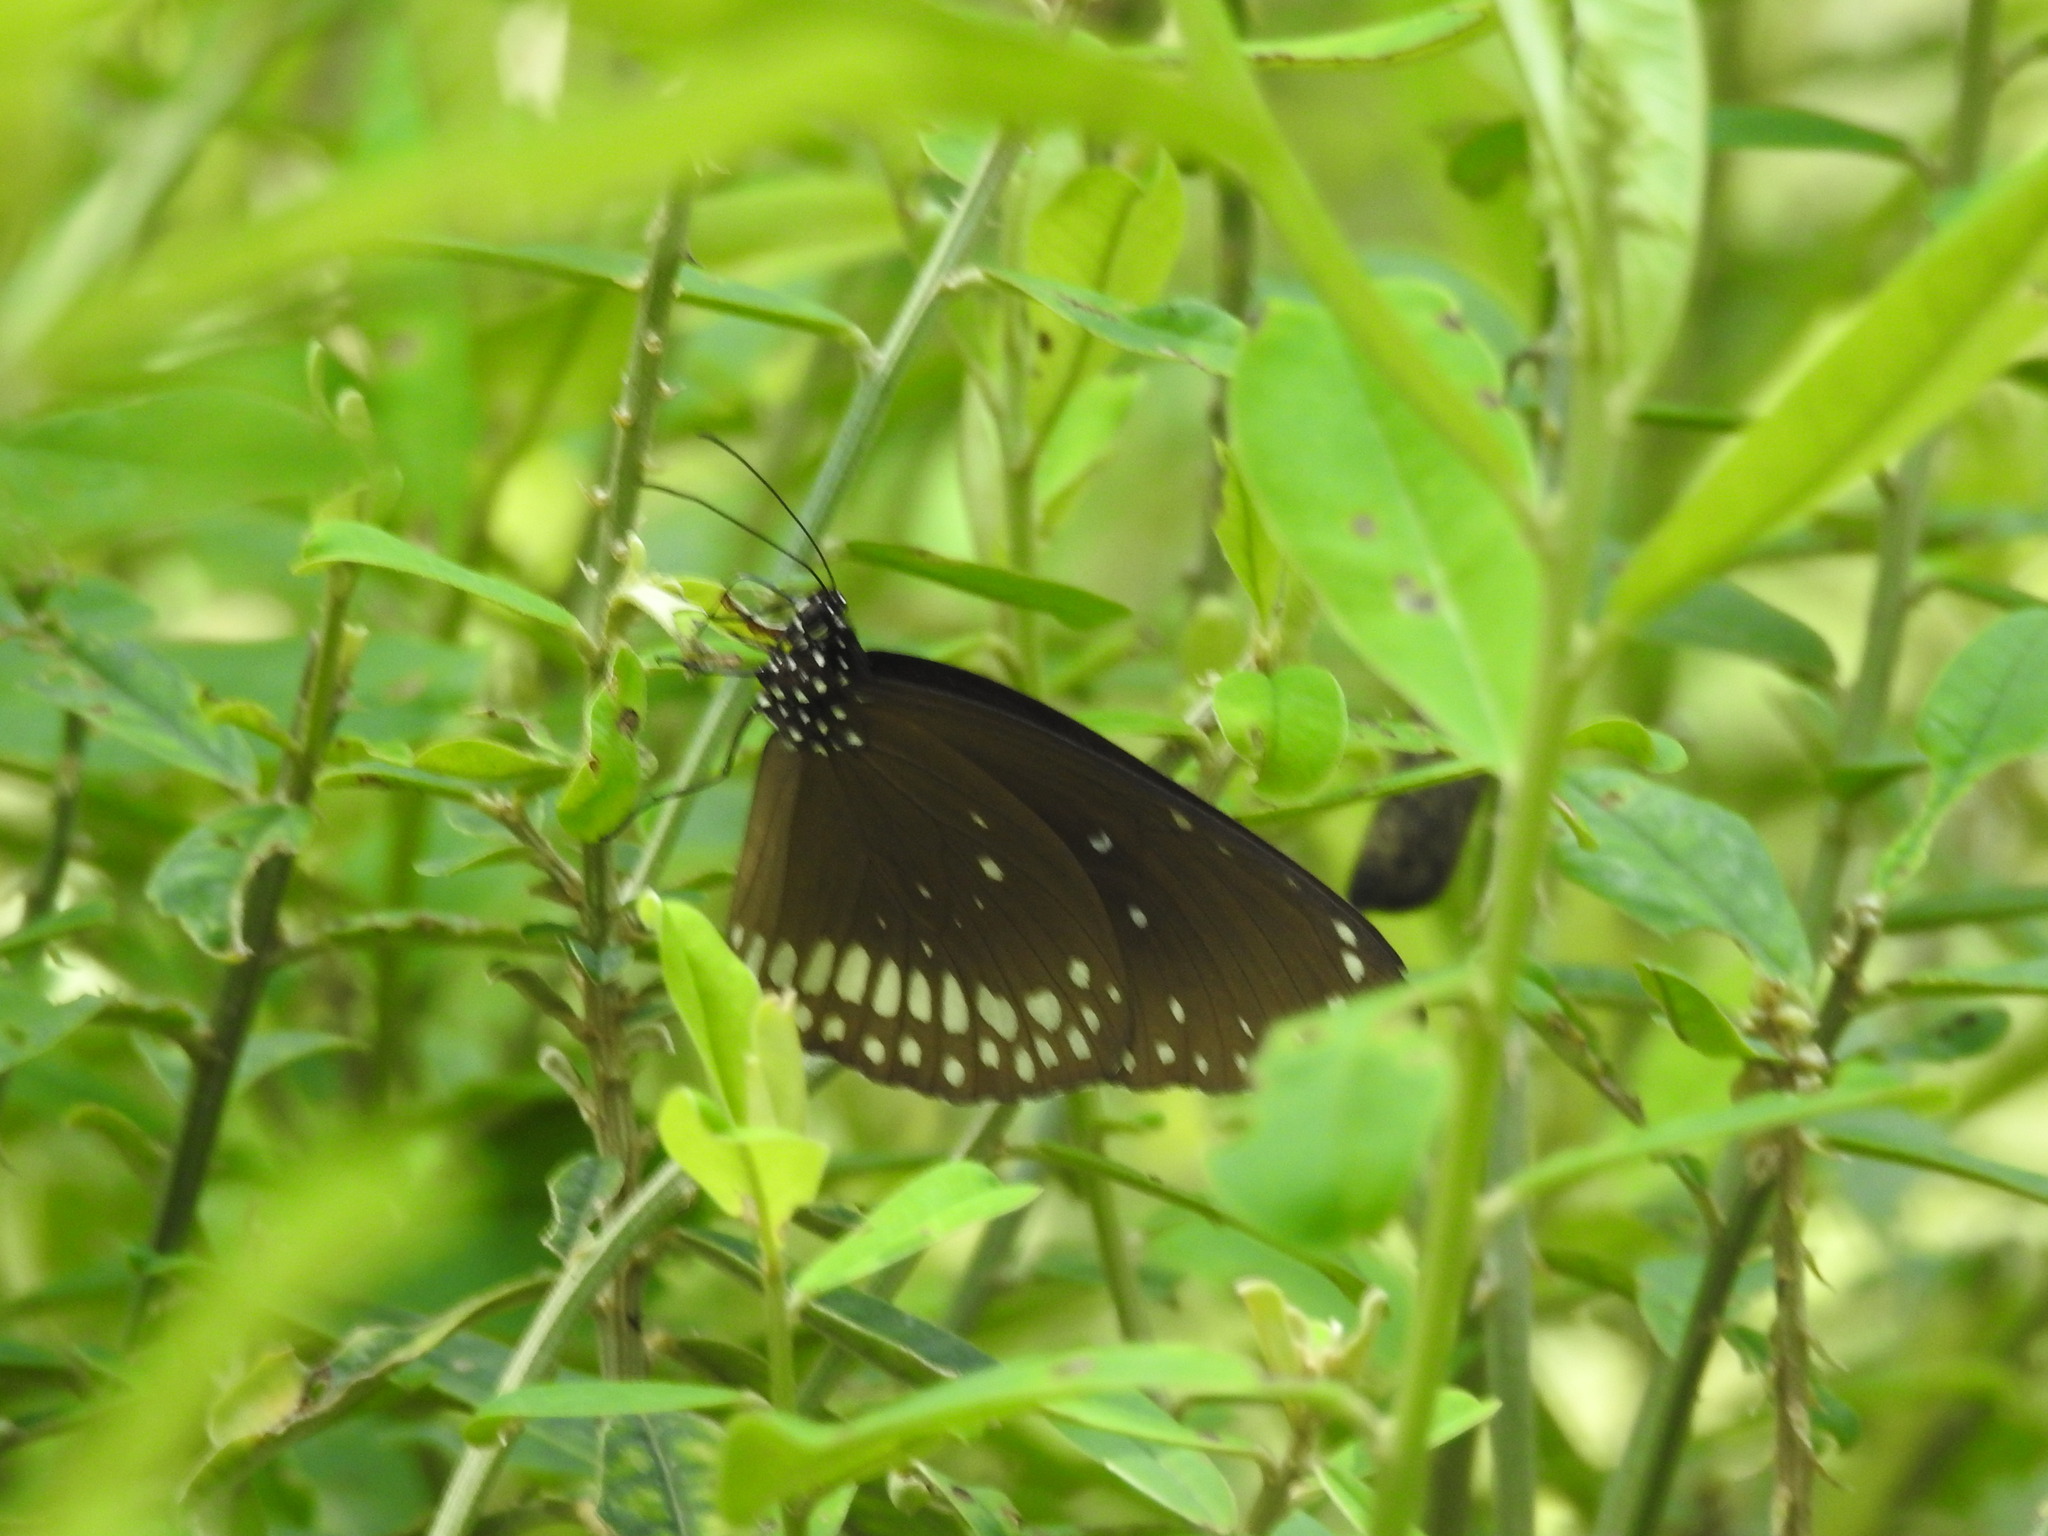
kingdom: Animalia
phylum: Arthropoda
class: Insecta
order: Lepidoptera
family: Nymphalidae
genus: Euploea
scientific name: Euploea core
